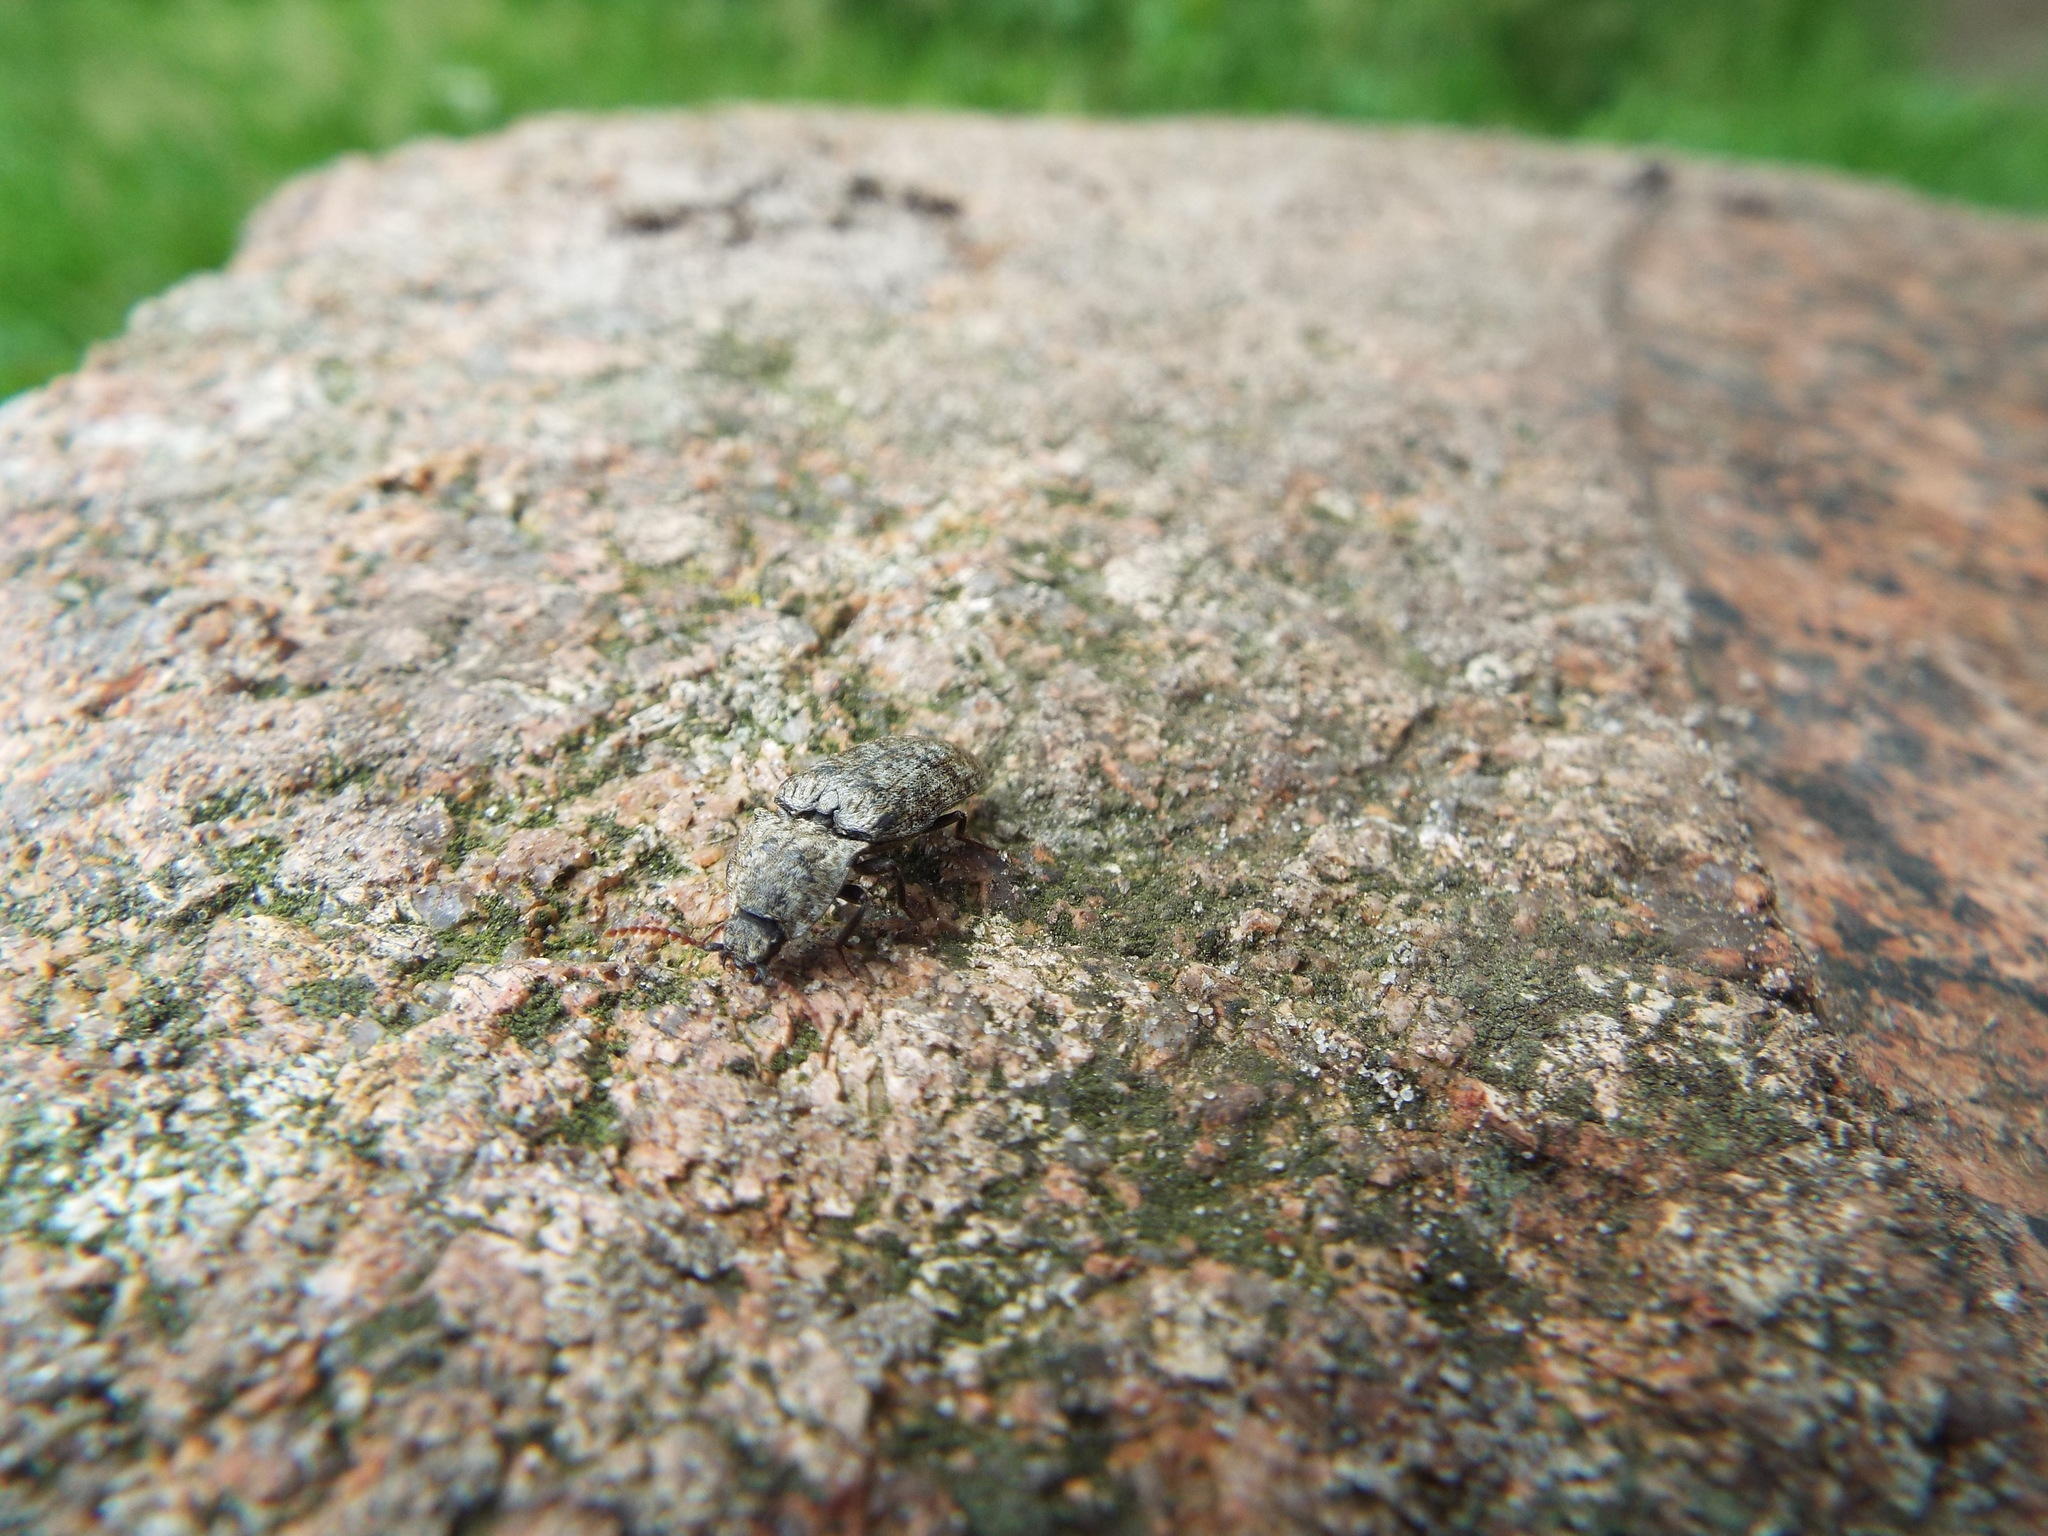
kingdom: Animalia
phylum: Arthropoda
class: Insecta
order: Coleoptera
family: Elateridae
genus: Agrypnus
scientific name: Agrypnus murinus
